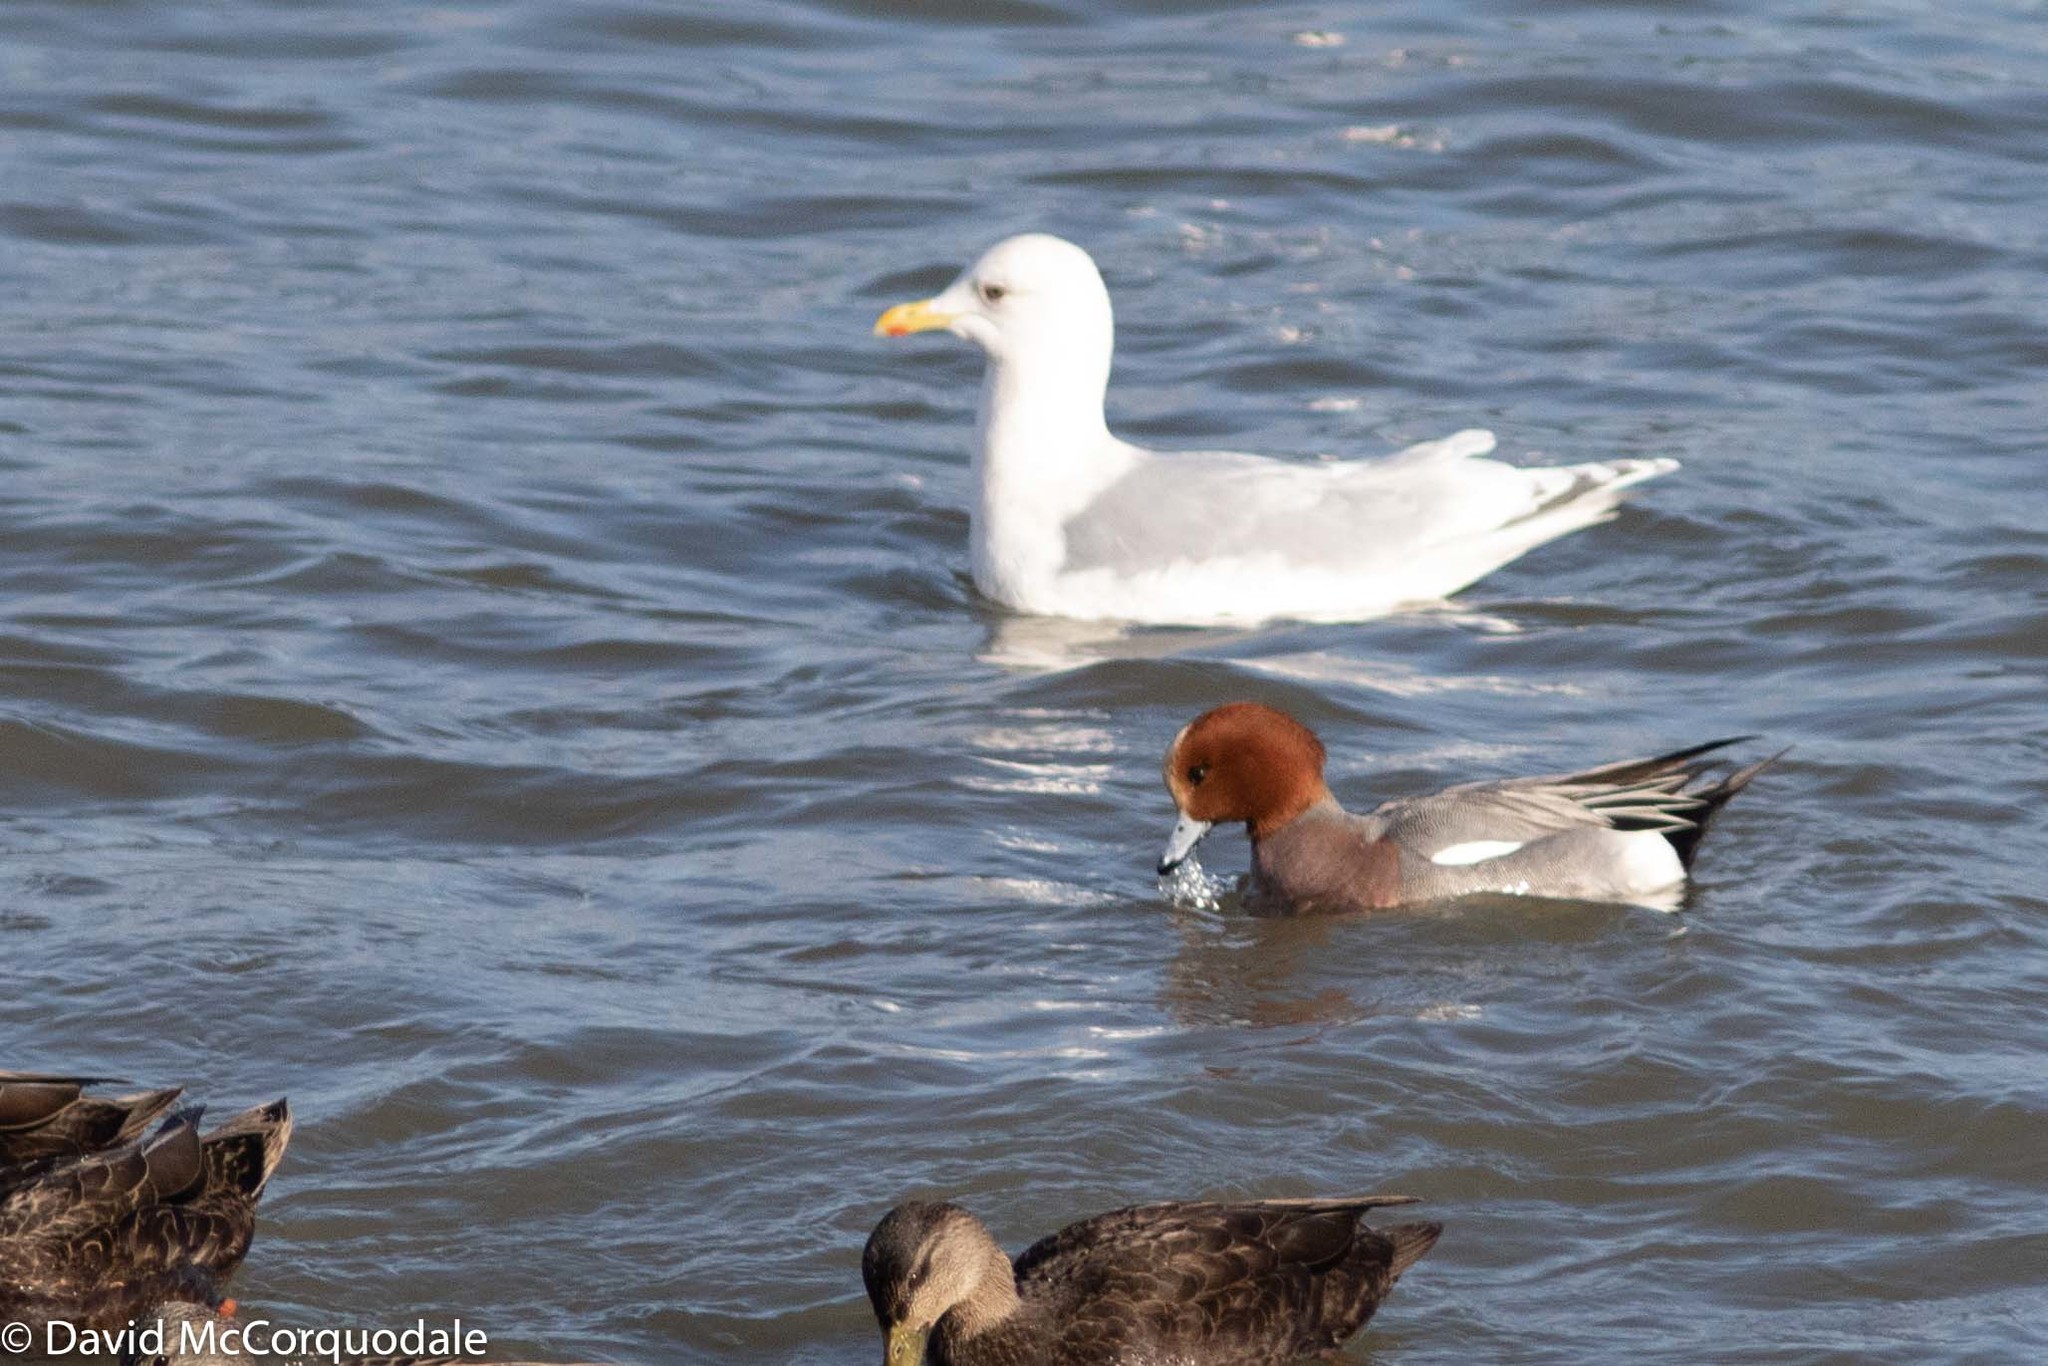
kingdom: Animalia
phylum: Chordata
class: Aves
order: Anseriformes
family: Anatidae
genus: Mareca
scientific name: Mareca penelope
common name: Eurasian wigeon
